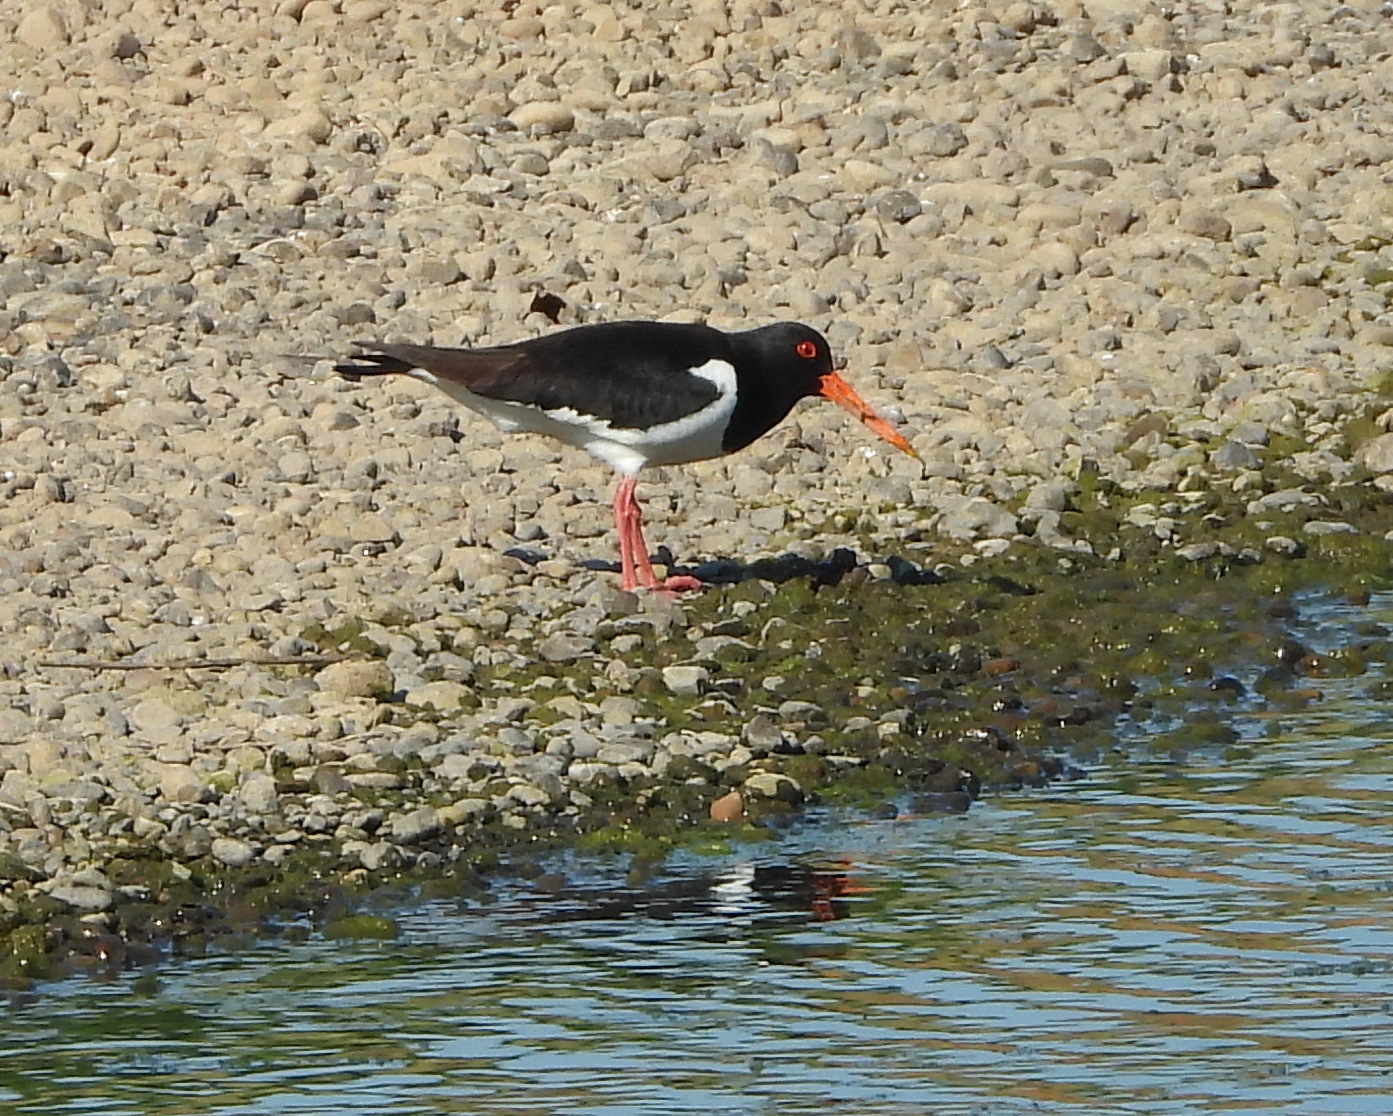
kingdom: Animalia
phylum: Chordata
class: Aves
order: Charadriiformes
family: Haematopodidae
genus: Haematopus
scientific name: Haematopus ostralegus
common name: Eurasian oystercatcher
